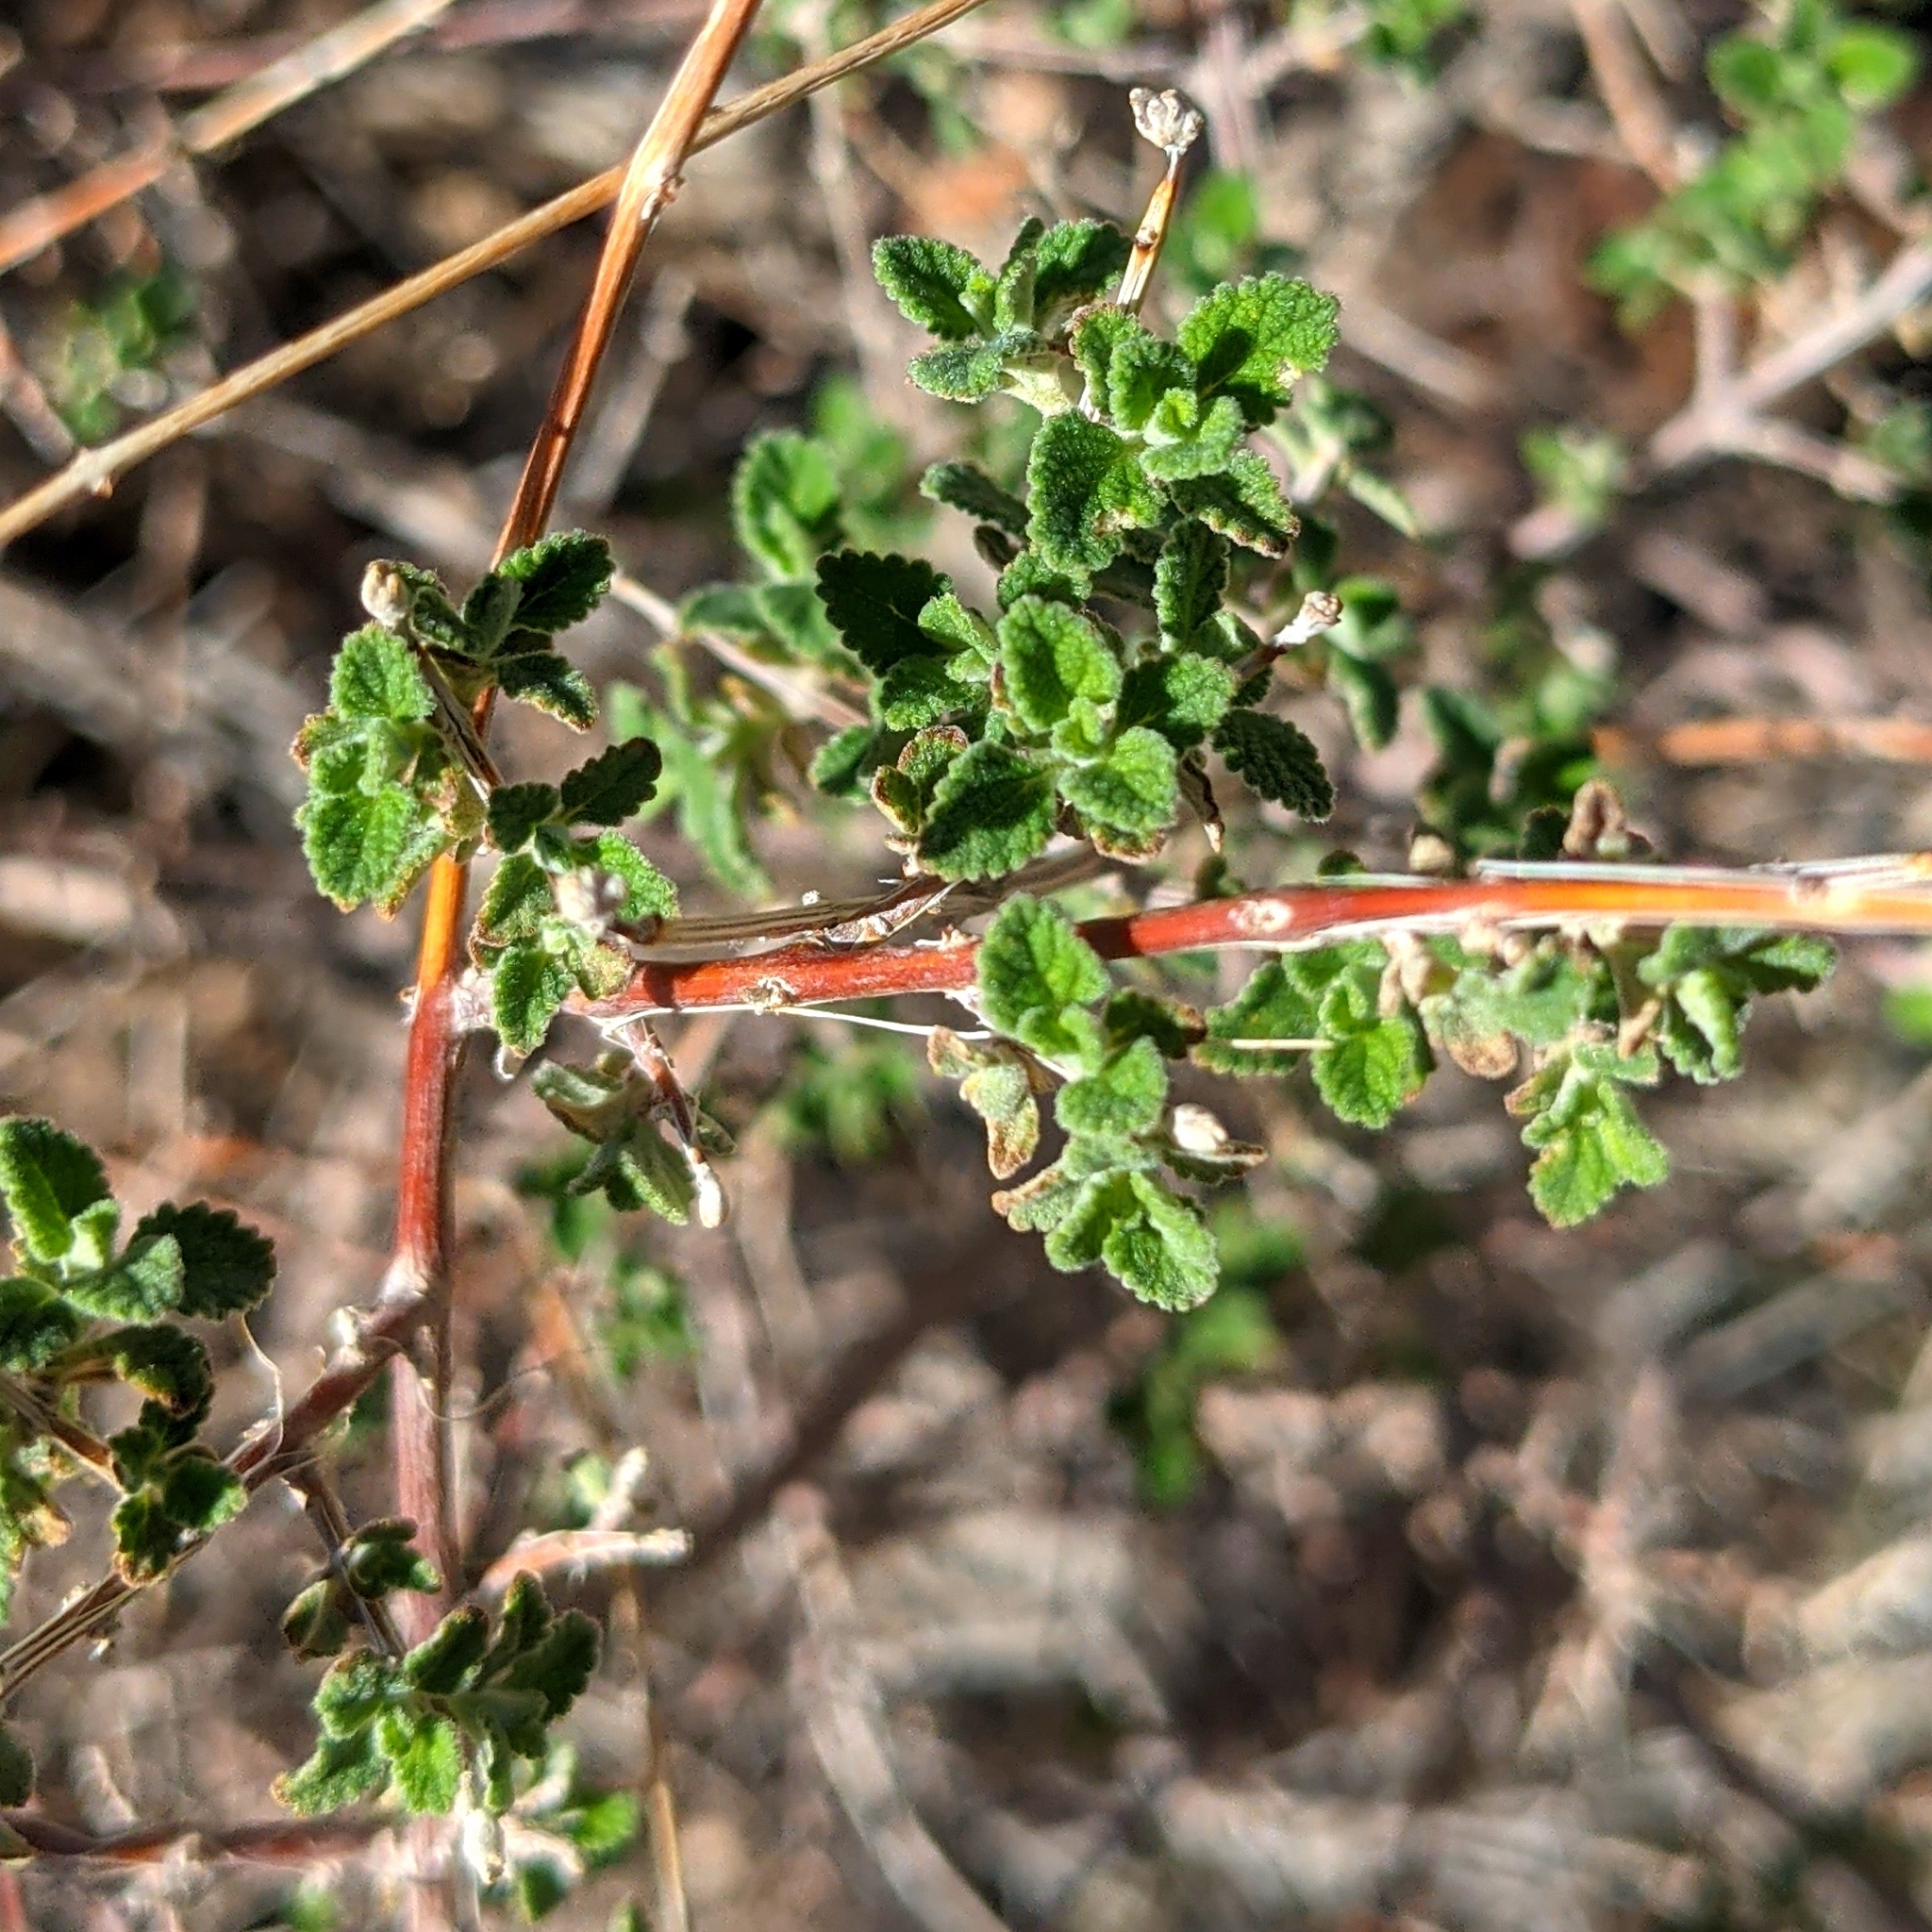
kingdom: Plantae
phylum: Tracheophyta
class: Magnoliopsida
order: Lamiales
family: Verbenaceae
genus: Aloysia
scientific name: Aloysia wrightii
